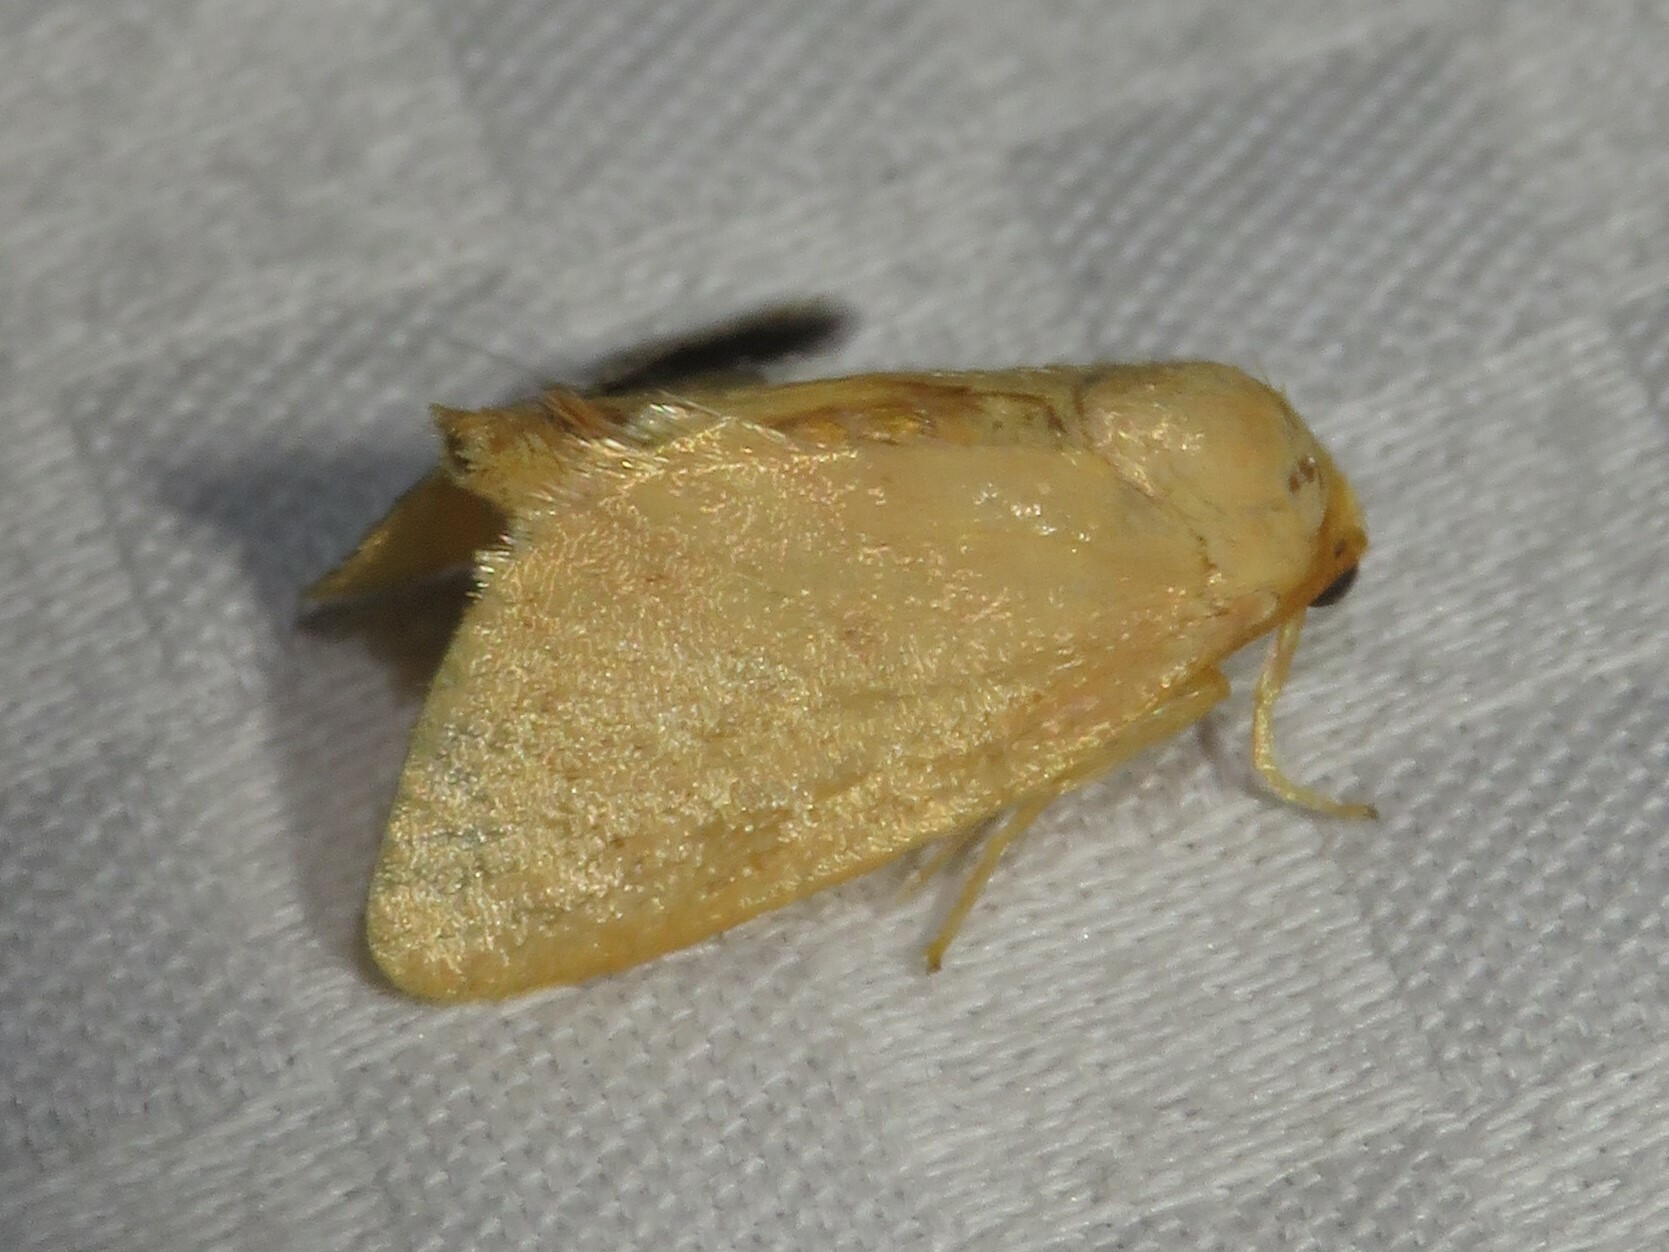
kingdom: Animalia
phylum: Arthropoda
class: Insecta
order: Lepidoptera
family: Limacodidae
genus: Tortricidia
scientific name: Tortricidia pallida
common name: Red-crossed button slug moth
